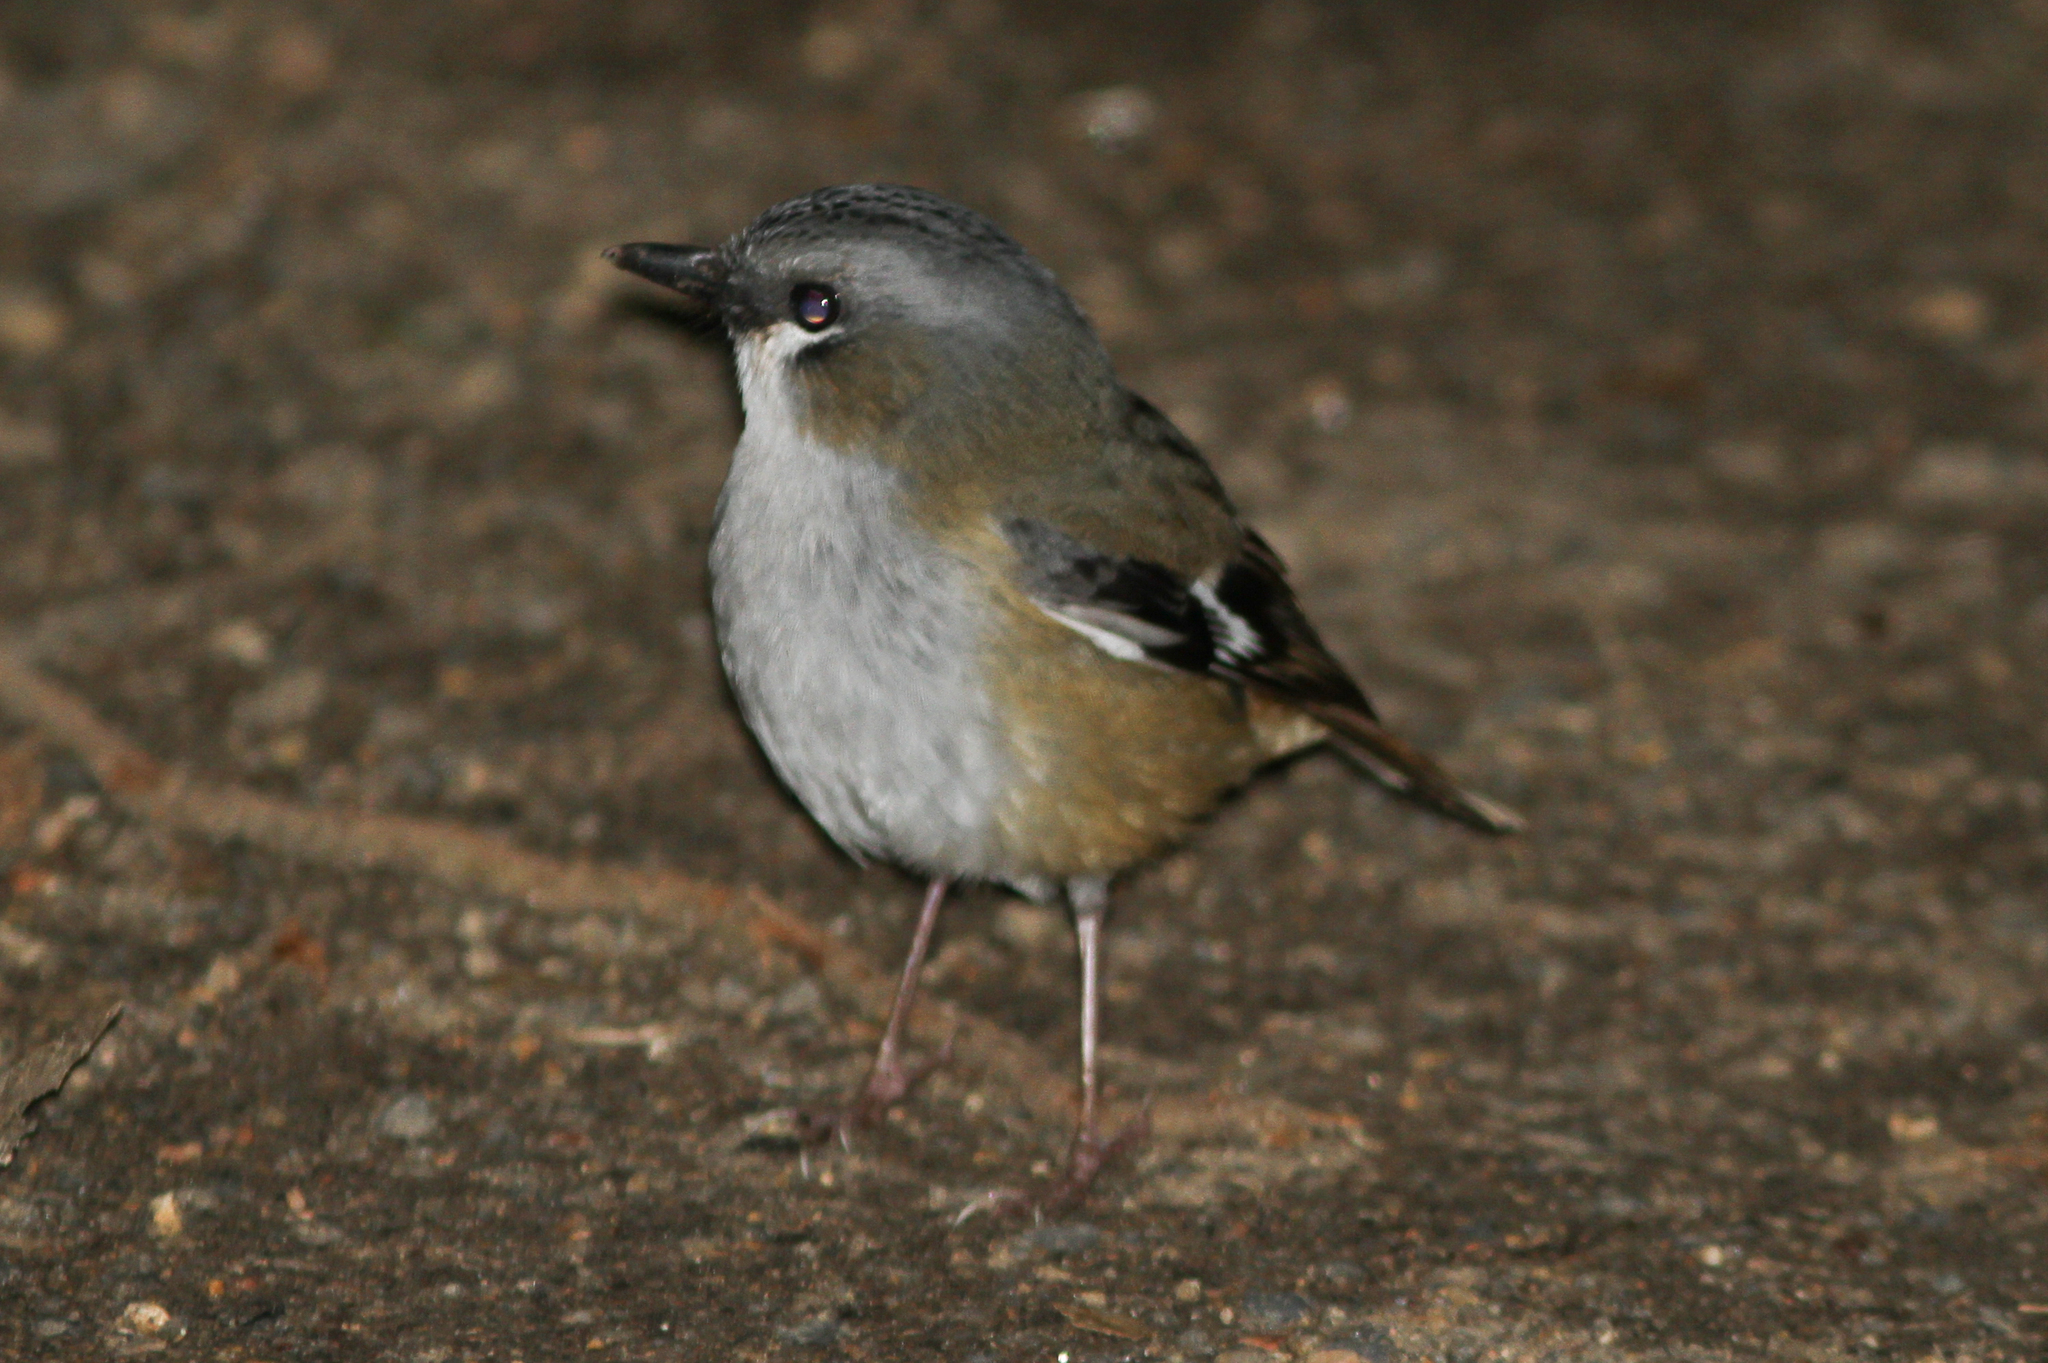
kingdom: Animalia
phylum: Chordata
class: Aves
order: Passeriformes
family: Petroicidae
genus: Heteromyias
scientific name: Heteromyias cinereifrons
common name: Grey-headed robin
